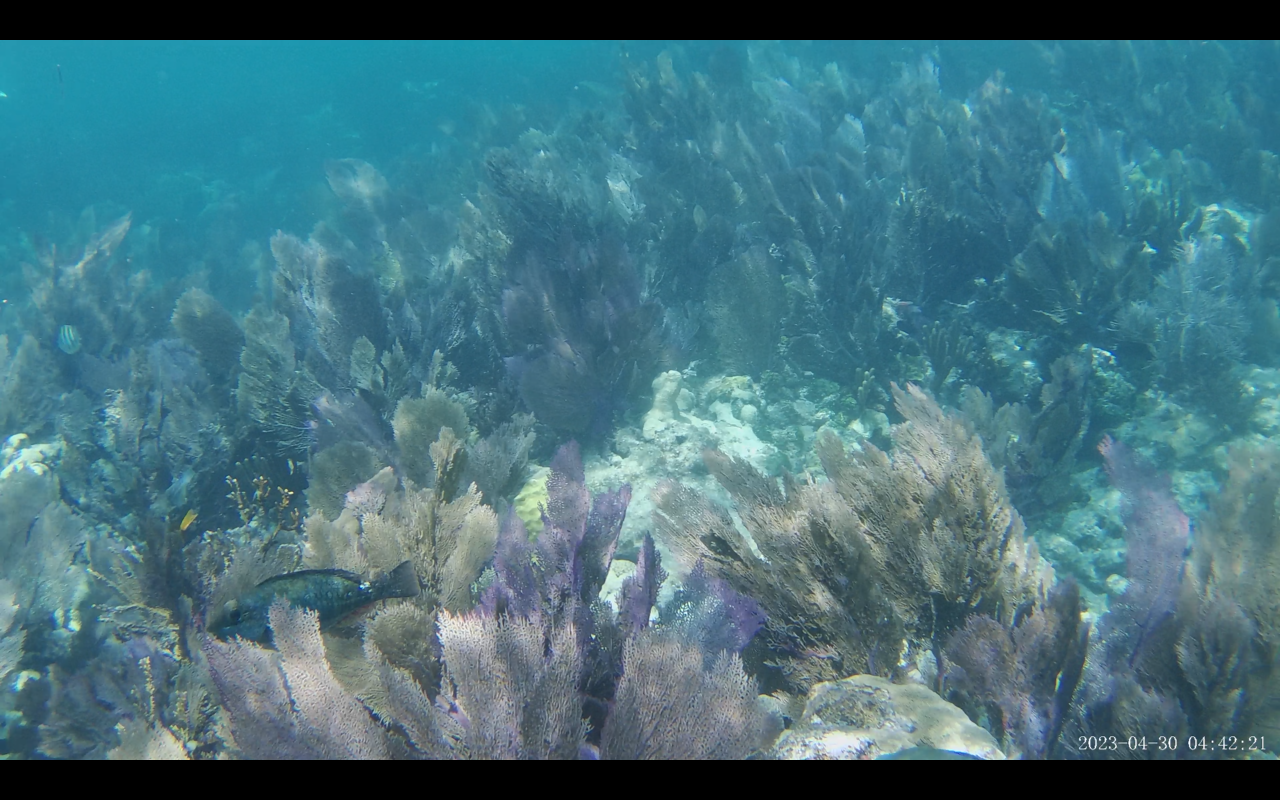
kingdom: Animalia
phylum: Chordata
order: Perciformes
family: Scaridae
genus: Sparisoma
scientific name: Sparisoma aurofrenatum
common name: Redband parrotfish
